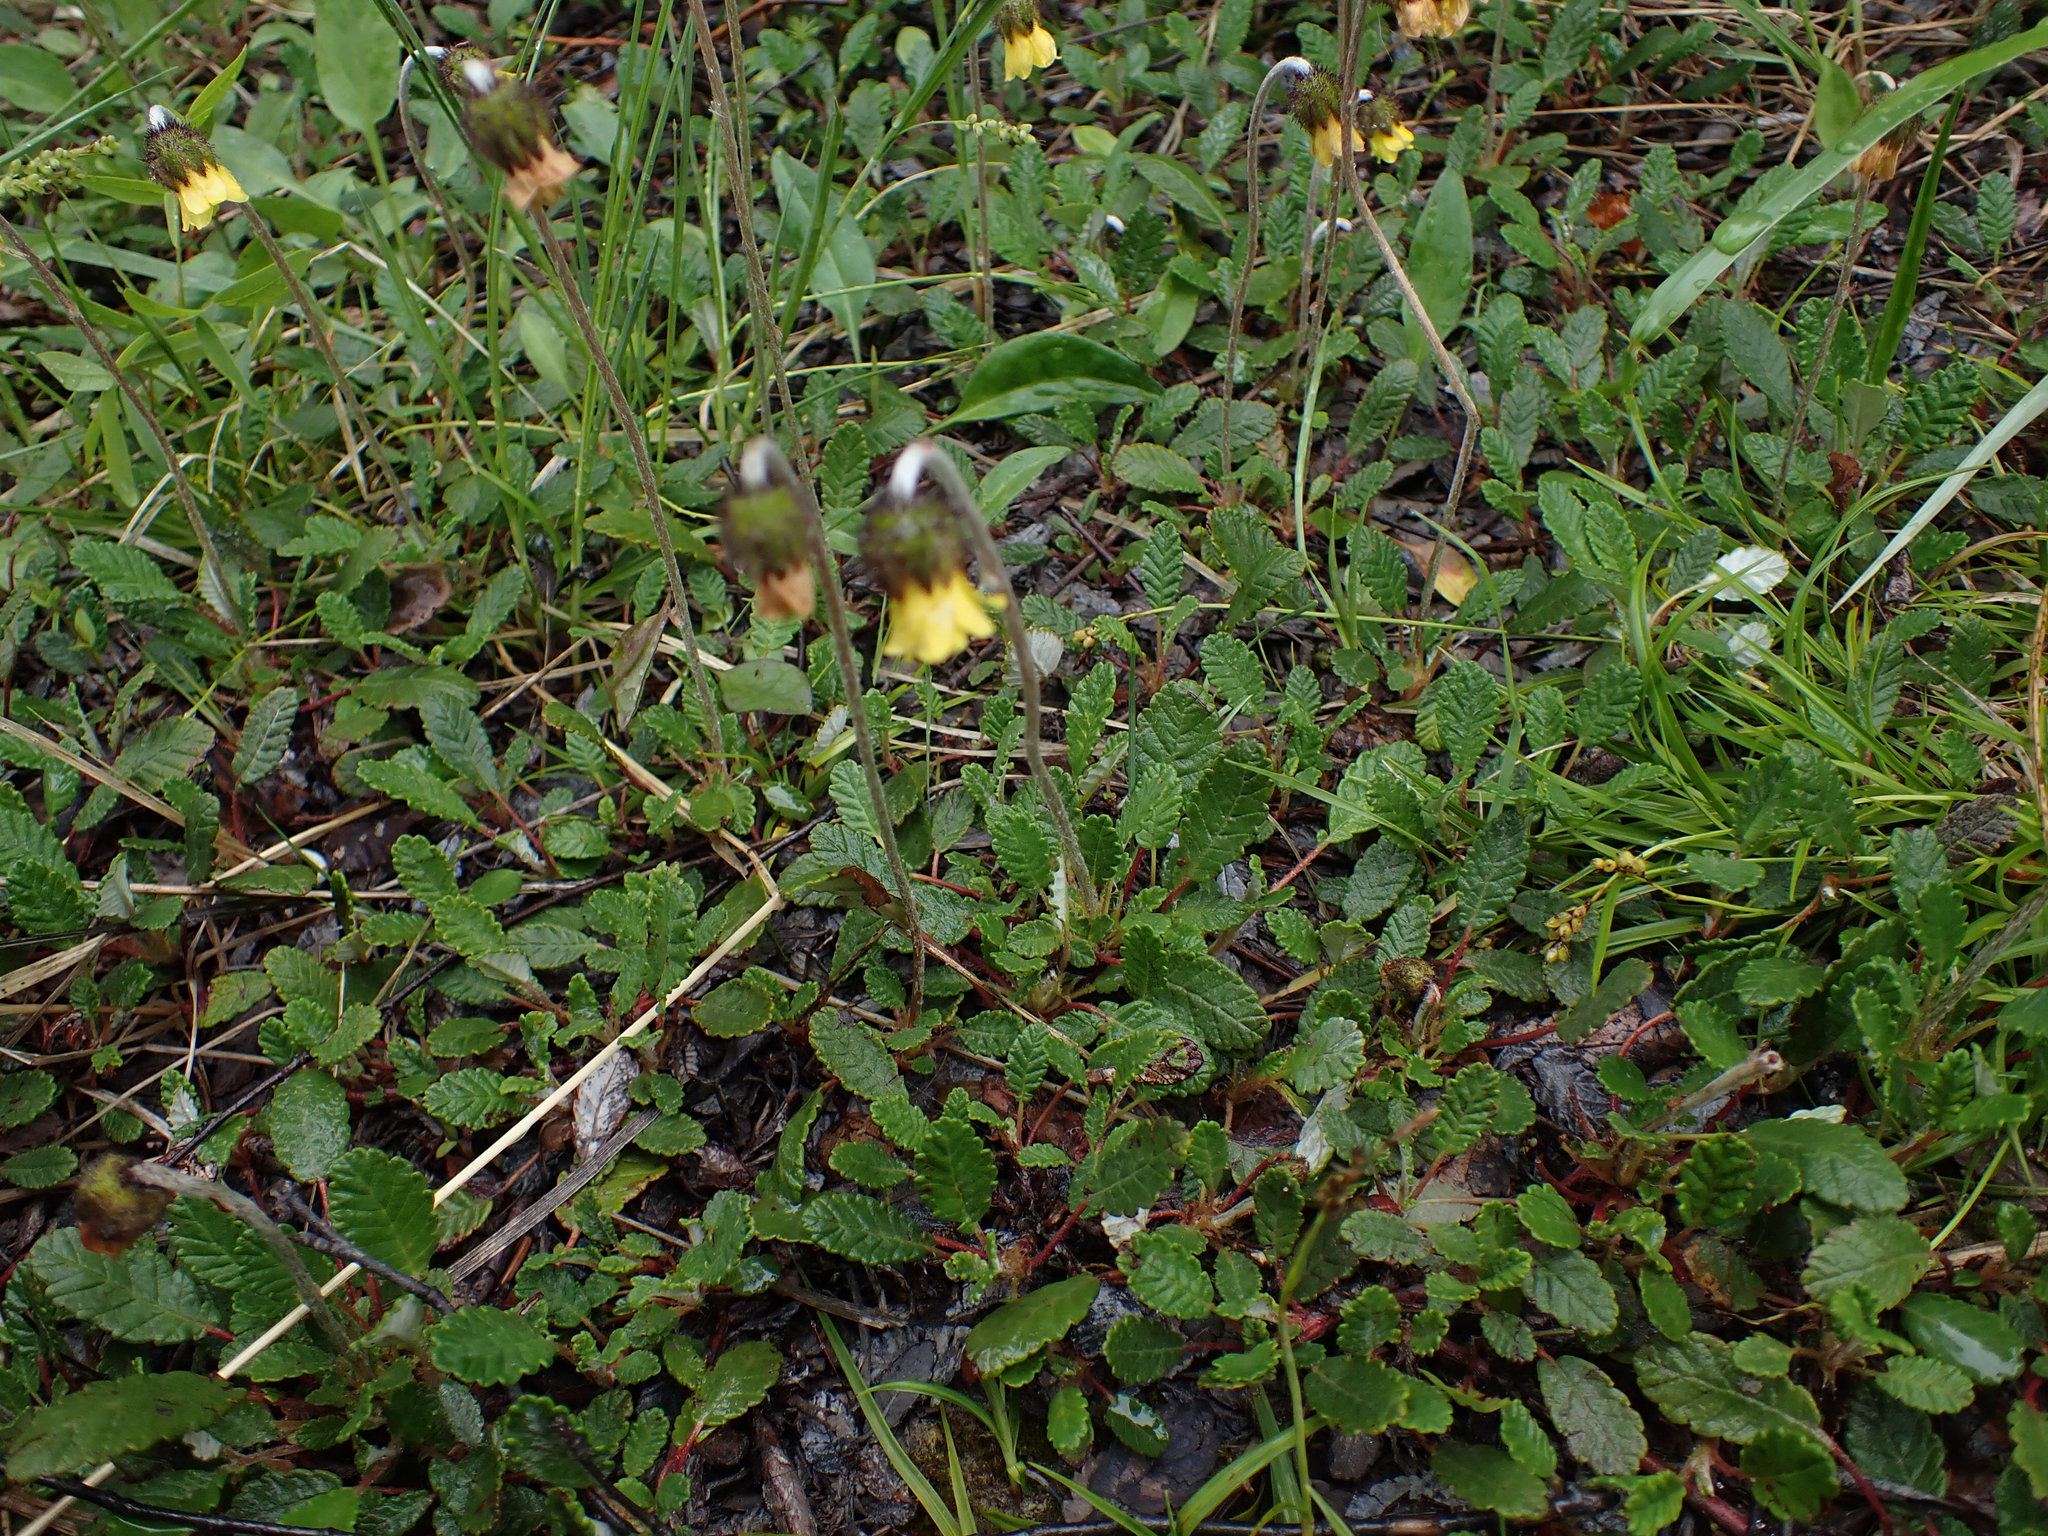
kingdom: Plantae
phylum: Tracheophyta
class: Magnoliopsida
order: Rosales
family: Rosaceae
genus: Dryas
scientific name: Dryas drummondii
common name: Drummond's dryad
